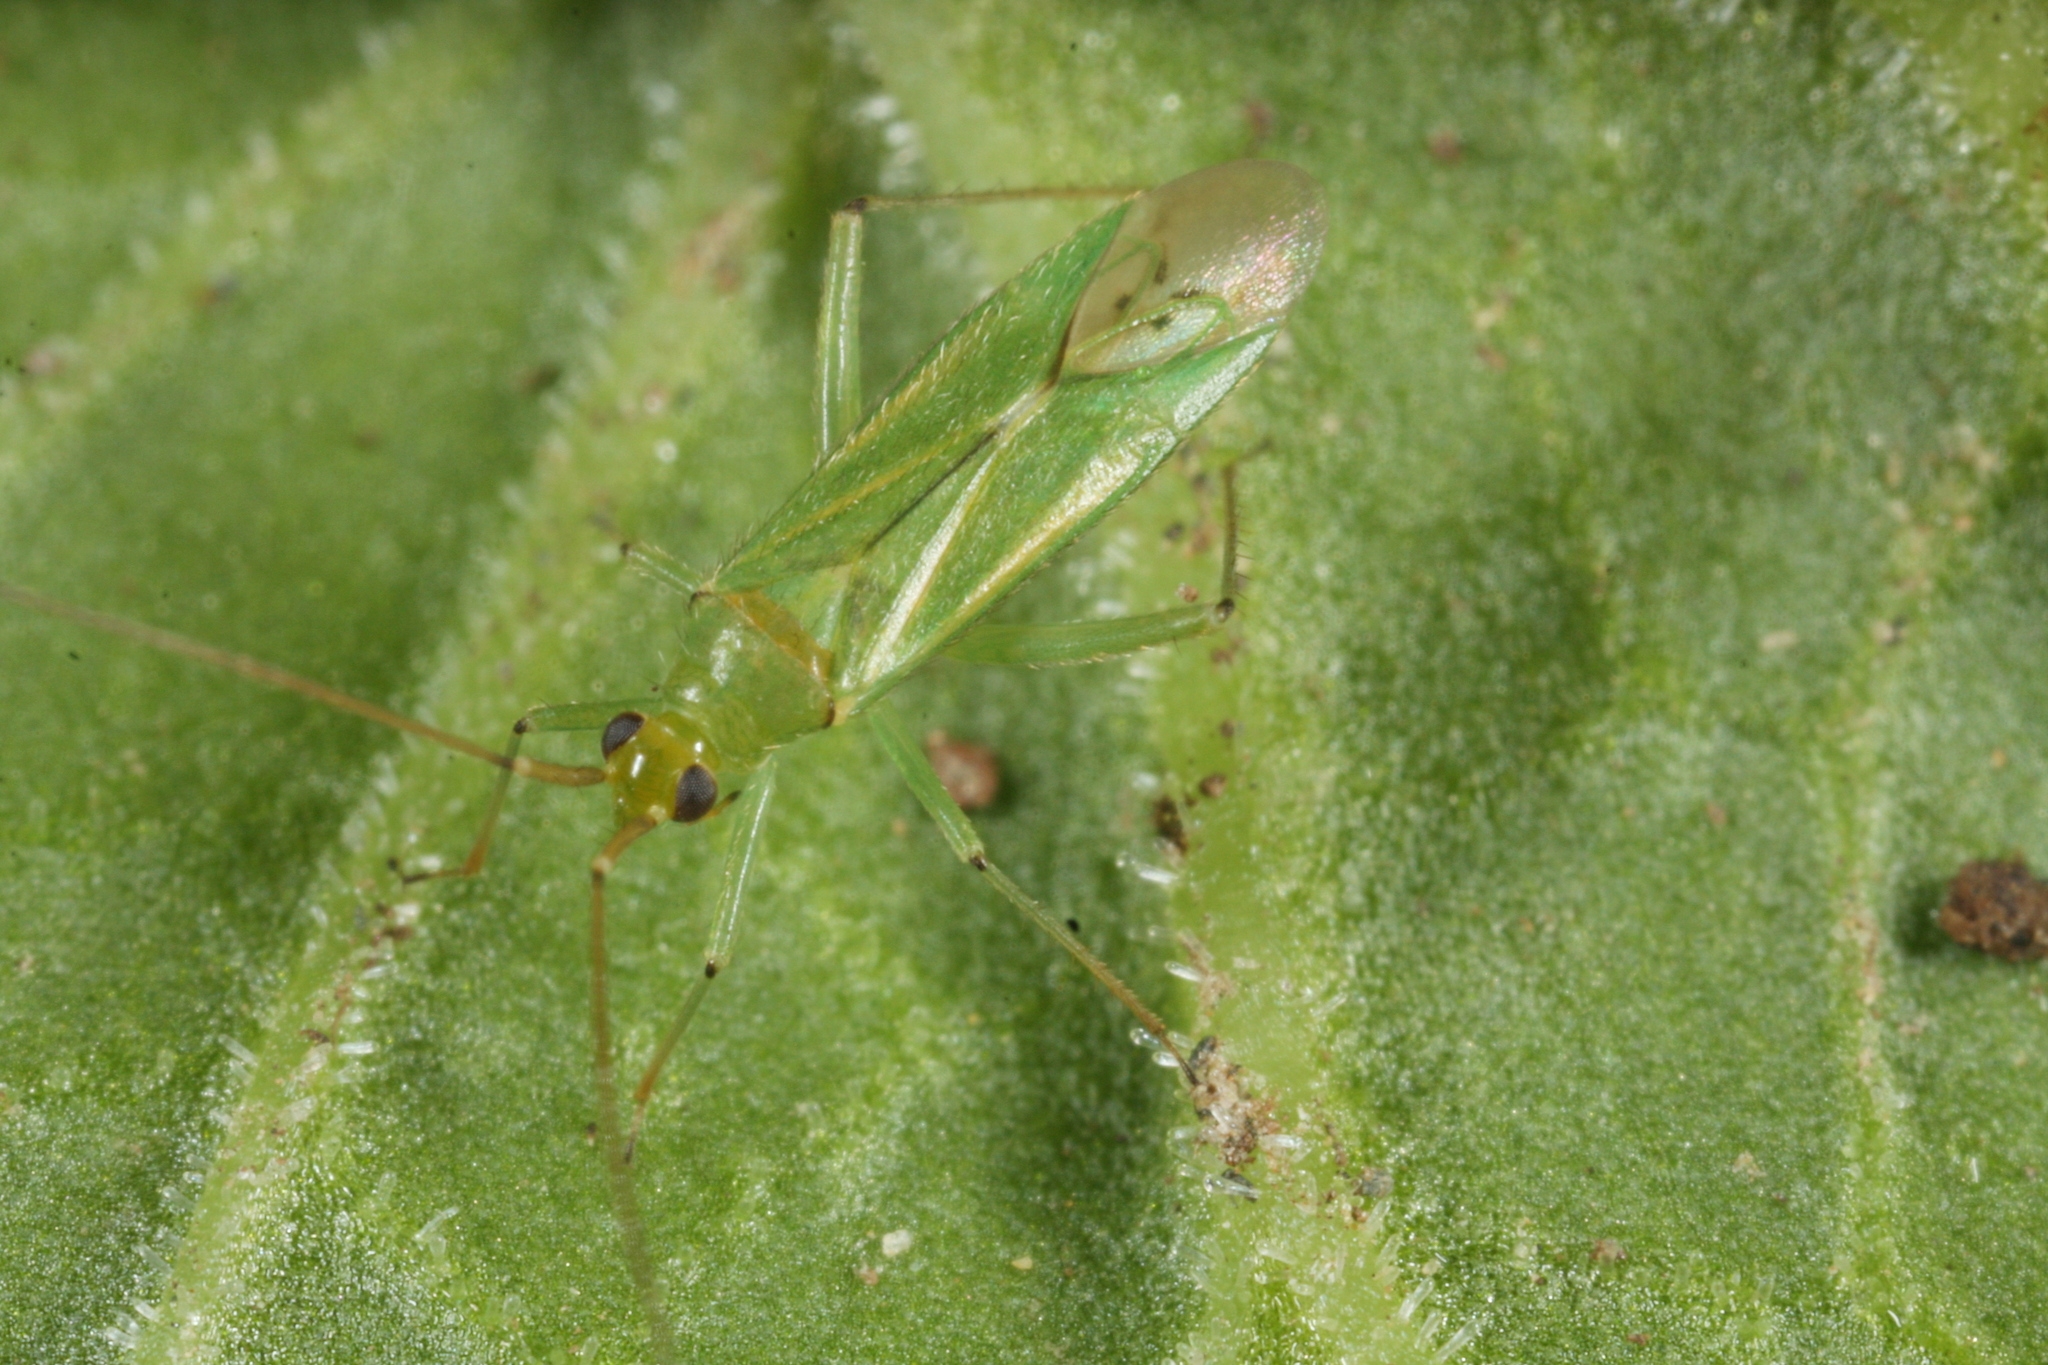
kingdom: Animalia
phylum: Arthropoda
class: Insecta
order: Hemiptera
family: Miridae
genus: Blepharidopterus
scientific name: Blepharidopterus angulatus
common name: Plant bug
